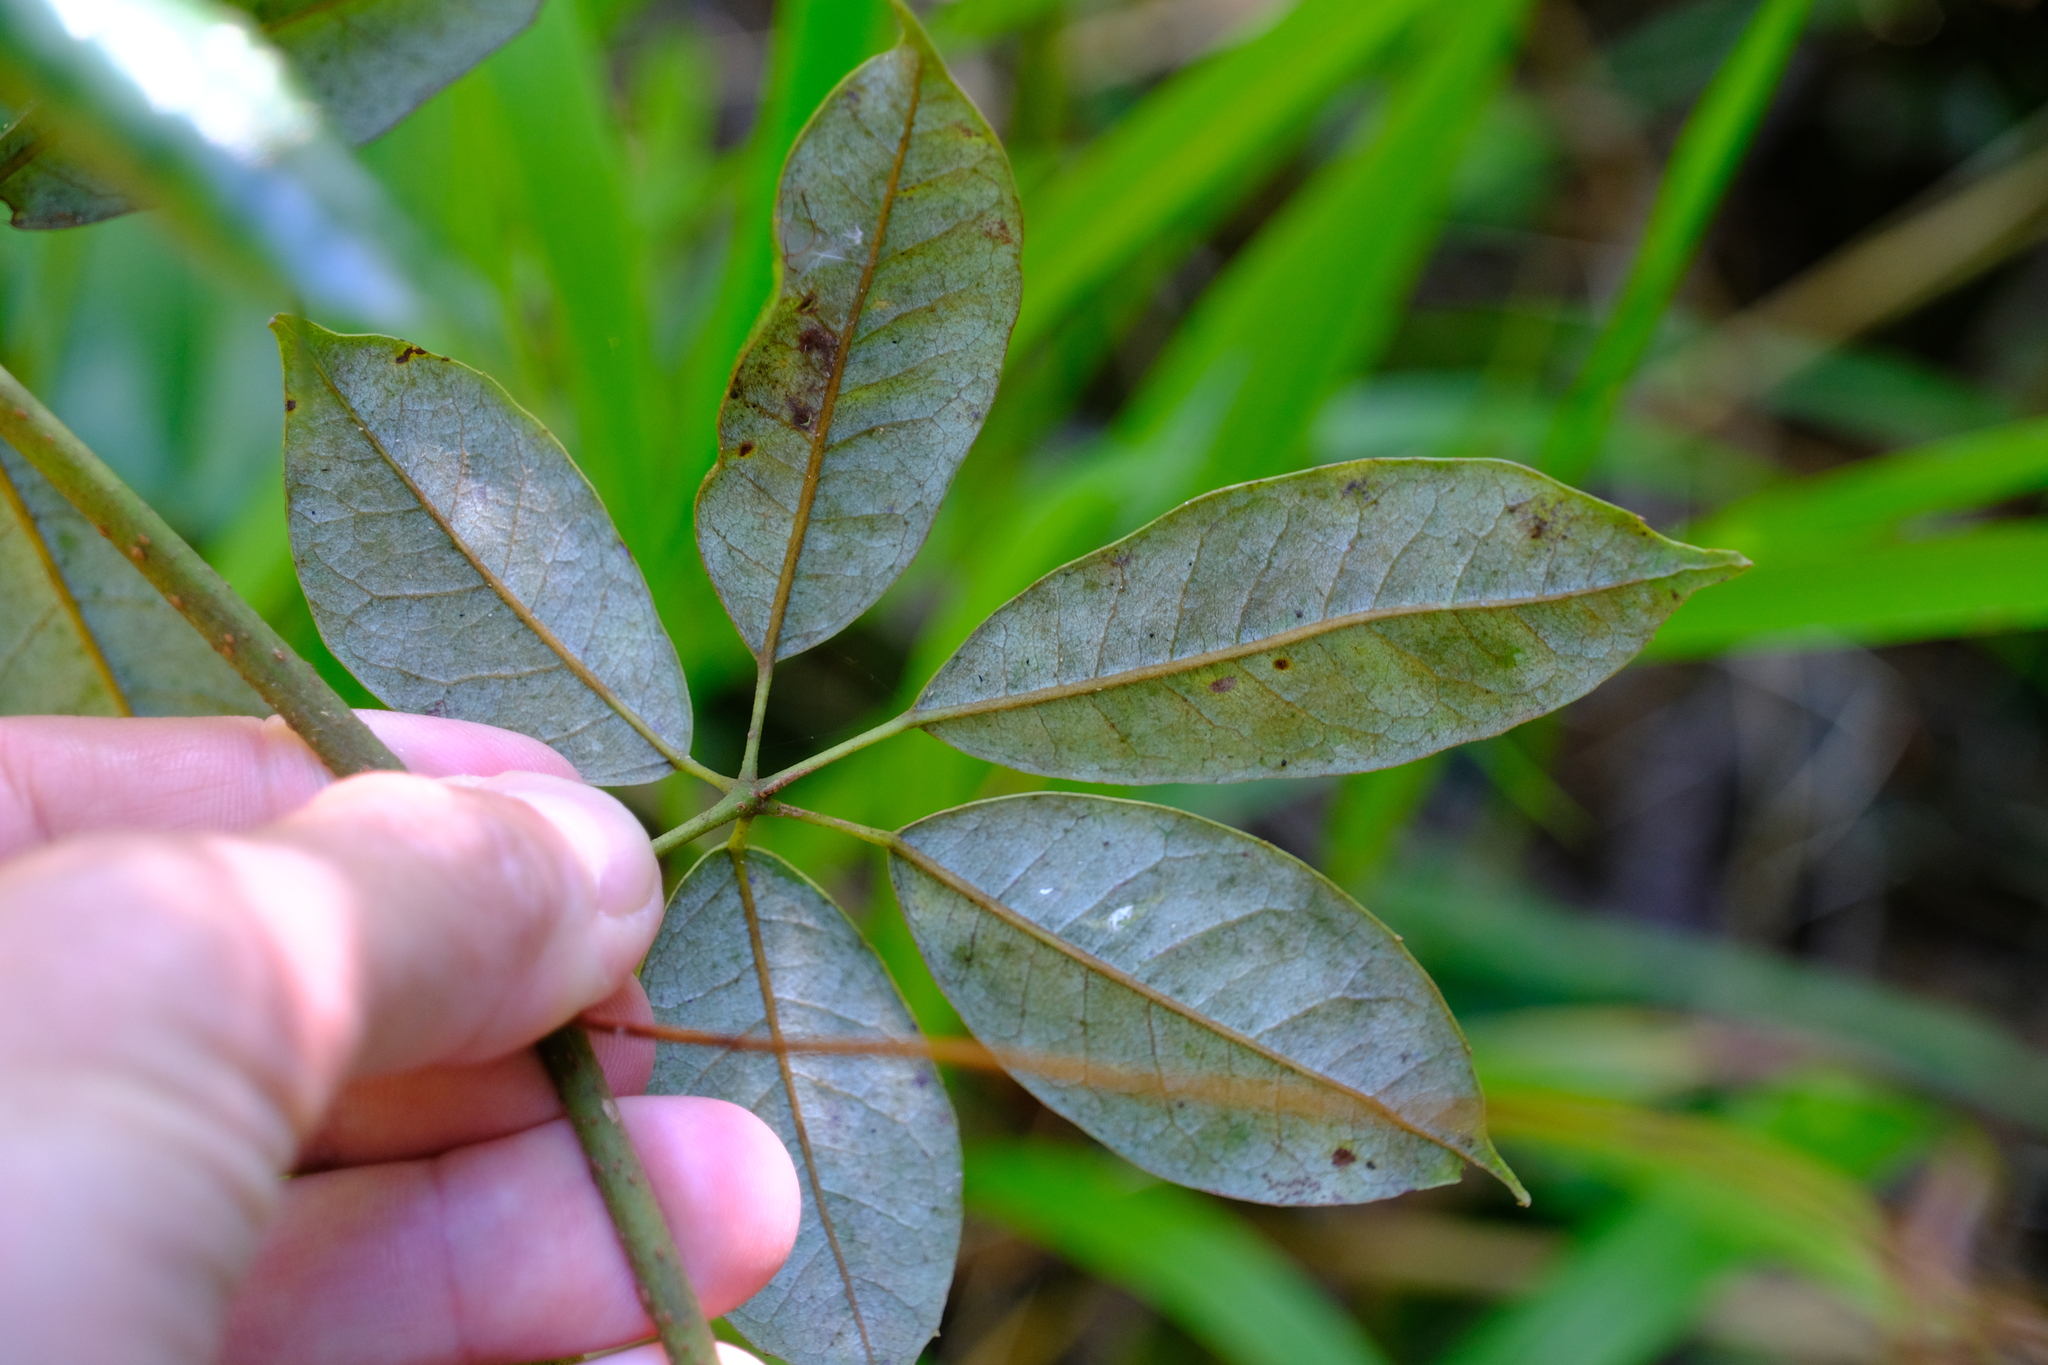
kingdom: Plantae
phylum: Tracheophyta
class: Magnoliopsida
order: Vitales
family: Vitaceae
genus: Nothocissus
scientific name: Nothocissus hypoglauca
